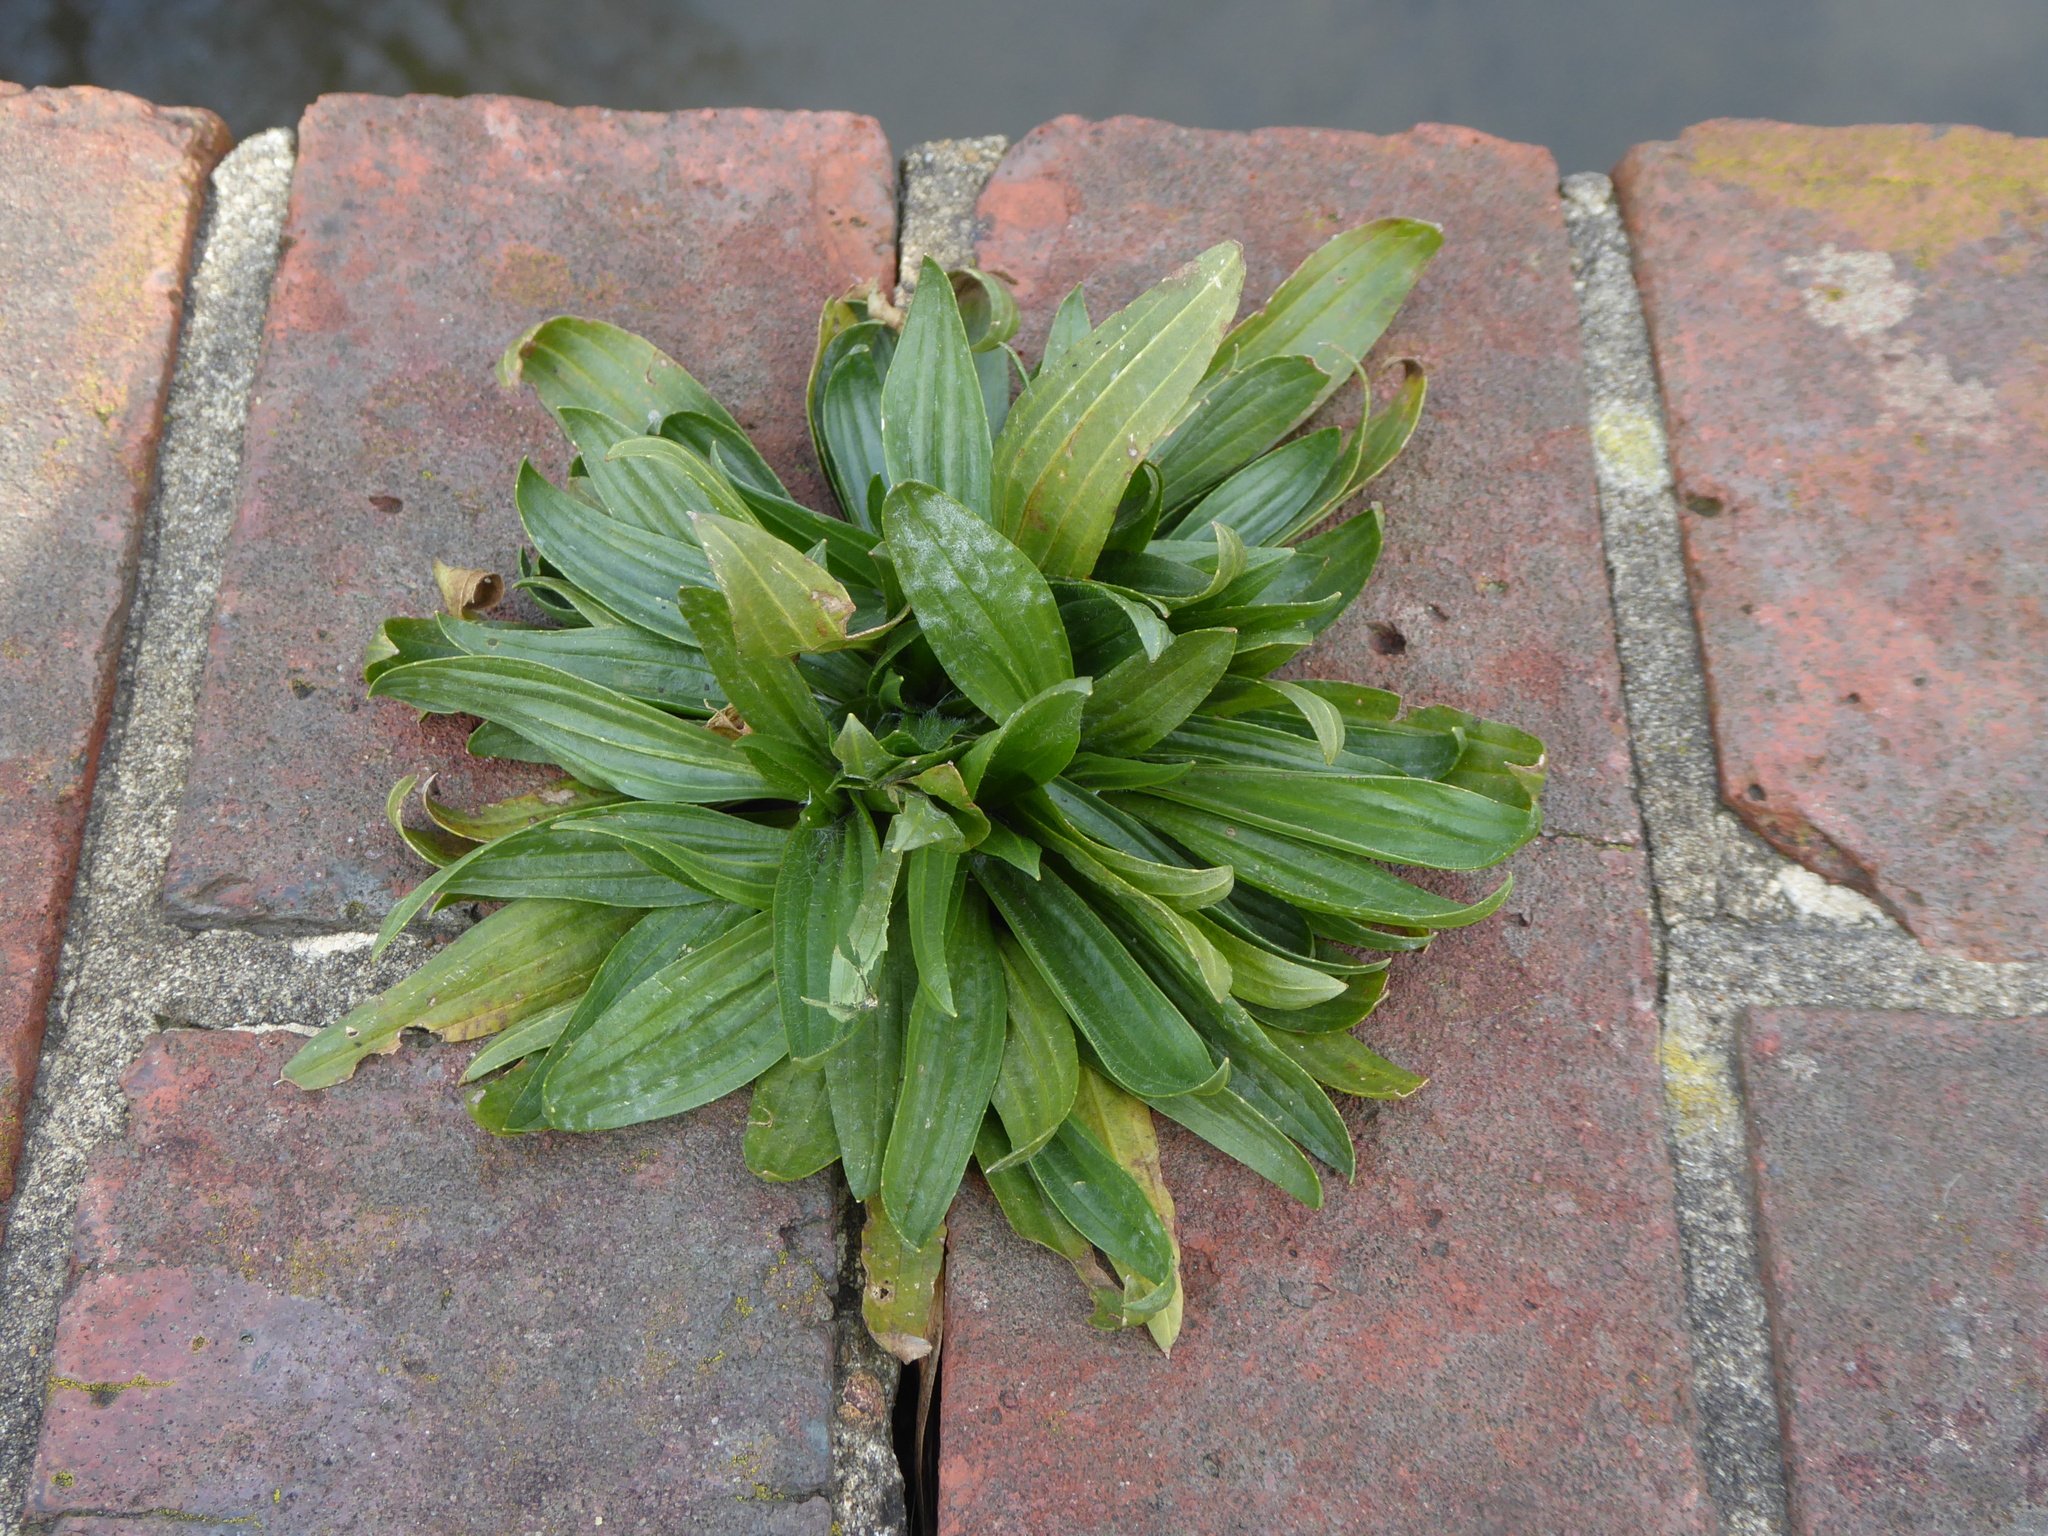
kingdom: Plantae
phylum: Tracheophyta
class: Magnoliopsida
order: Lamiales
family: Plantaginaceae
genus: Plantago
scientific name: Plantago lanceolata
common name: Ribwort plantain
